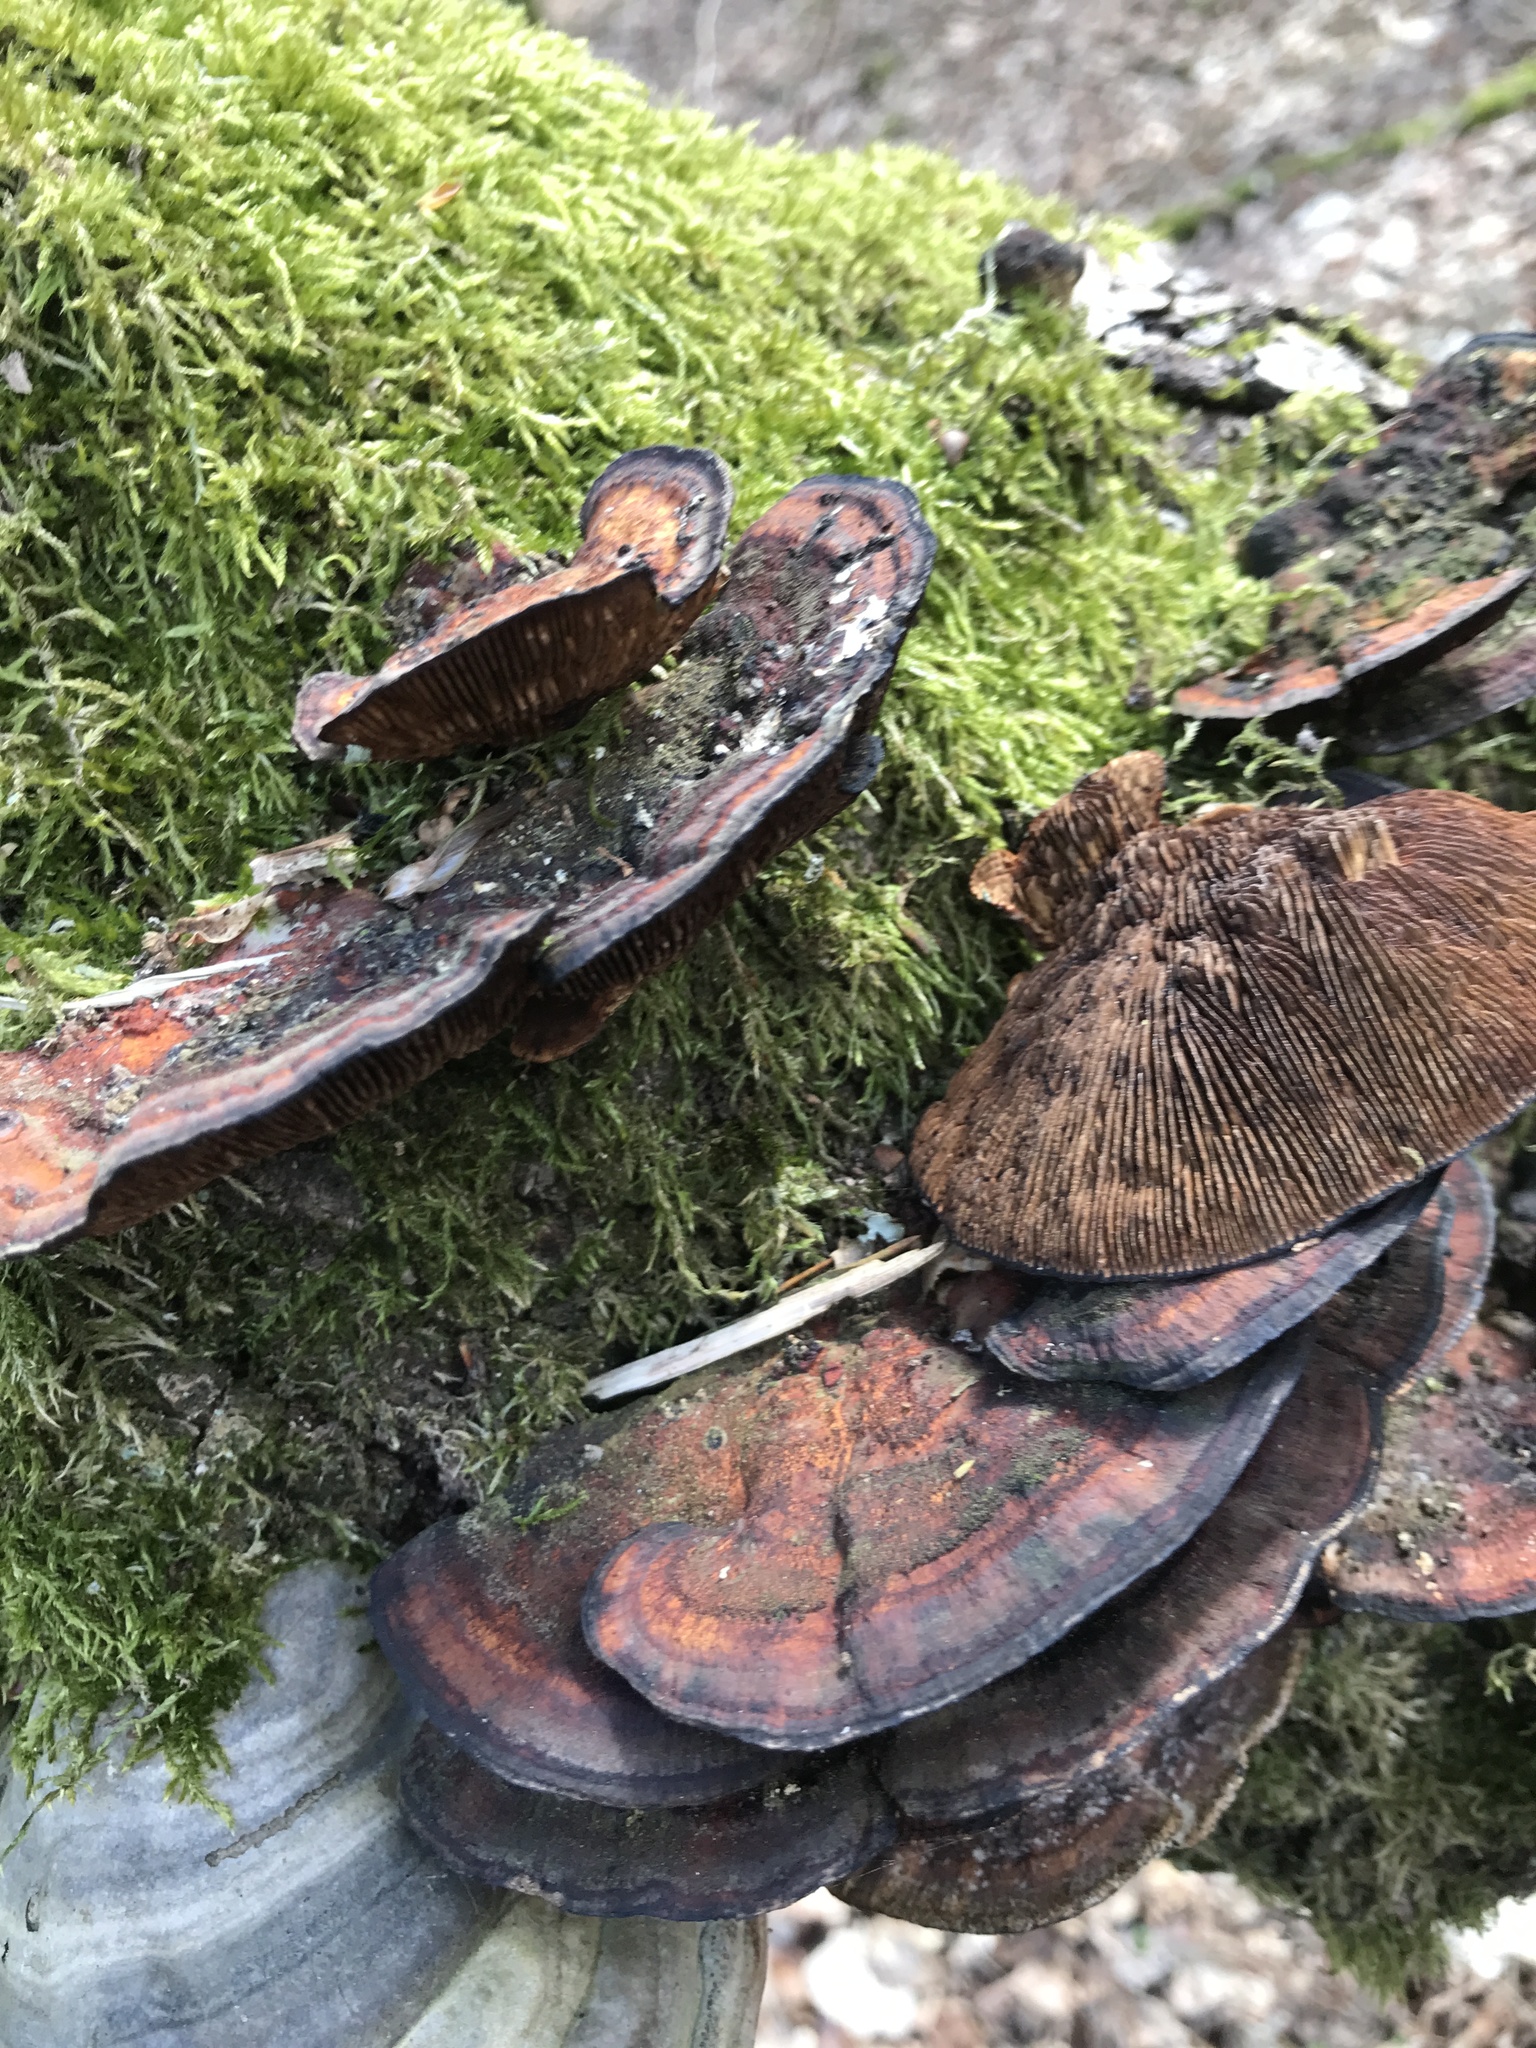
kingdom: Fungi
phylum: Basidiomycota
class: Agaricomycetes
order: Polyporales
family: Polyporaceae
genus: Daedaleopsis
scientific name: Daedaleopsis tricolor
